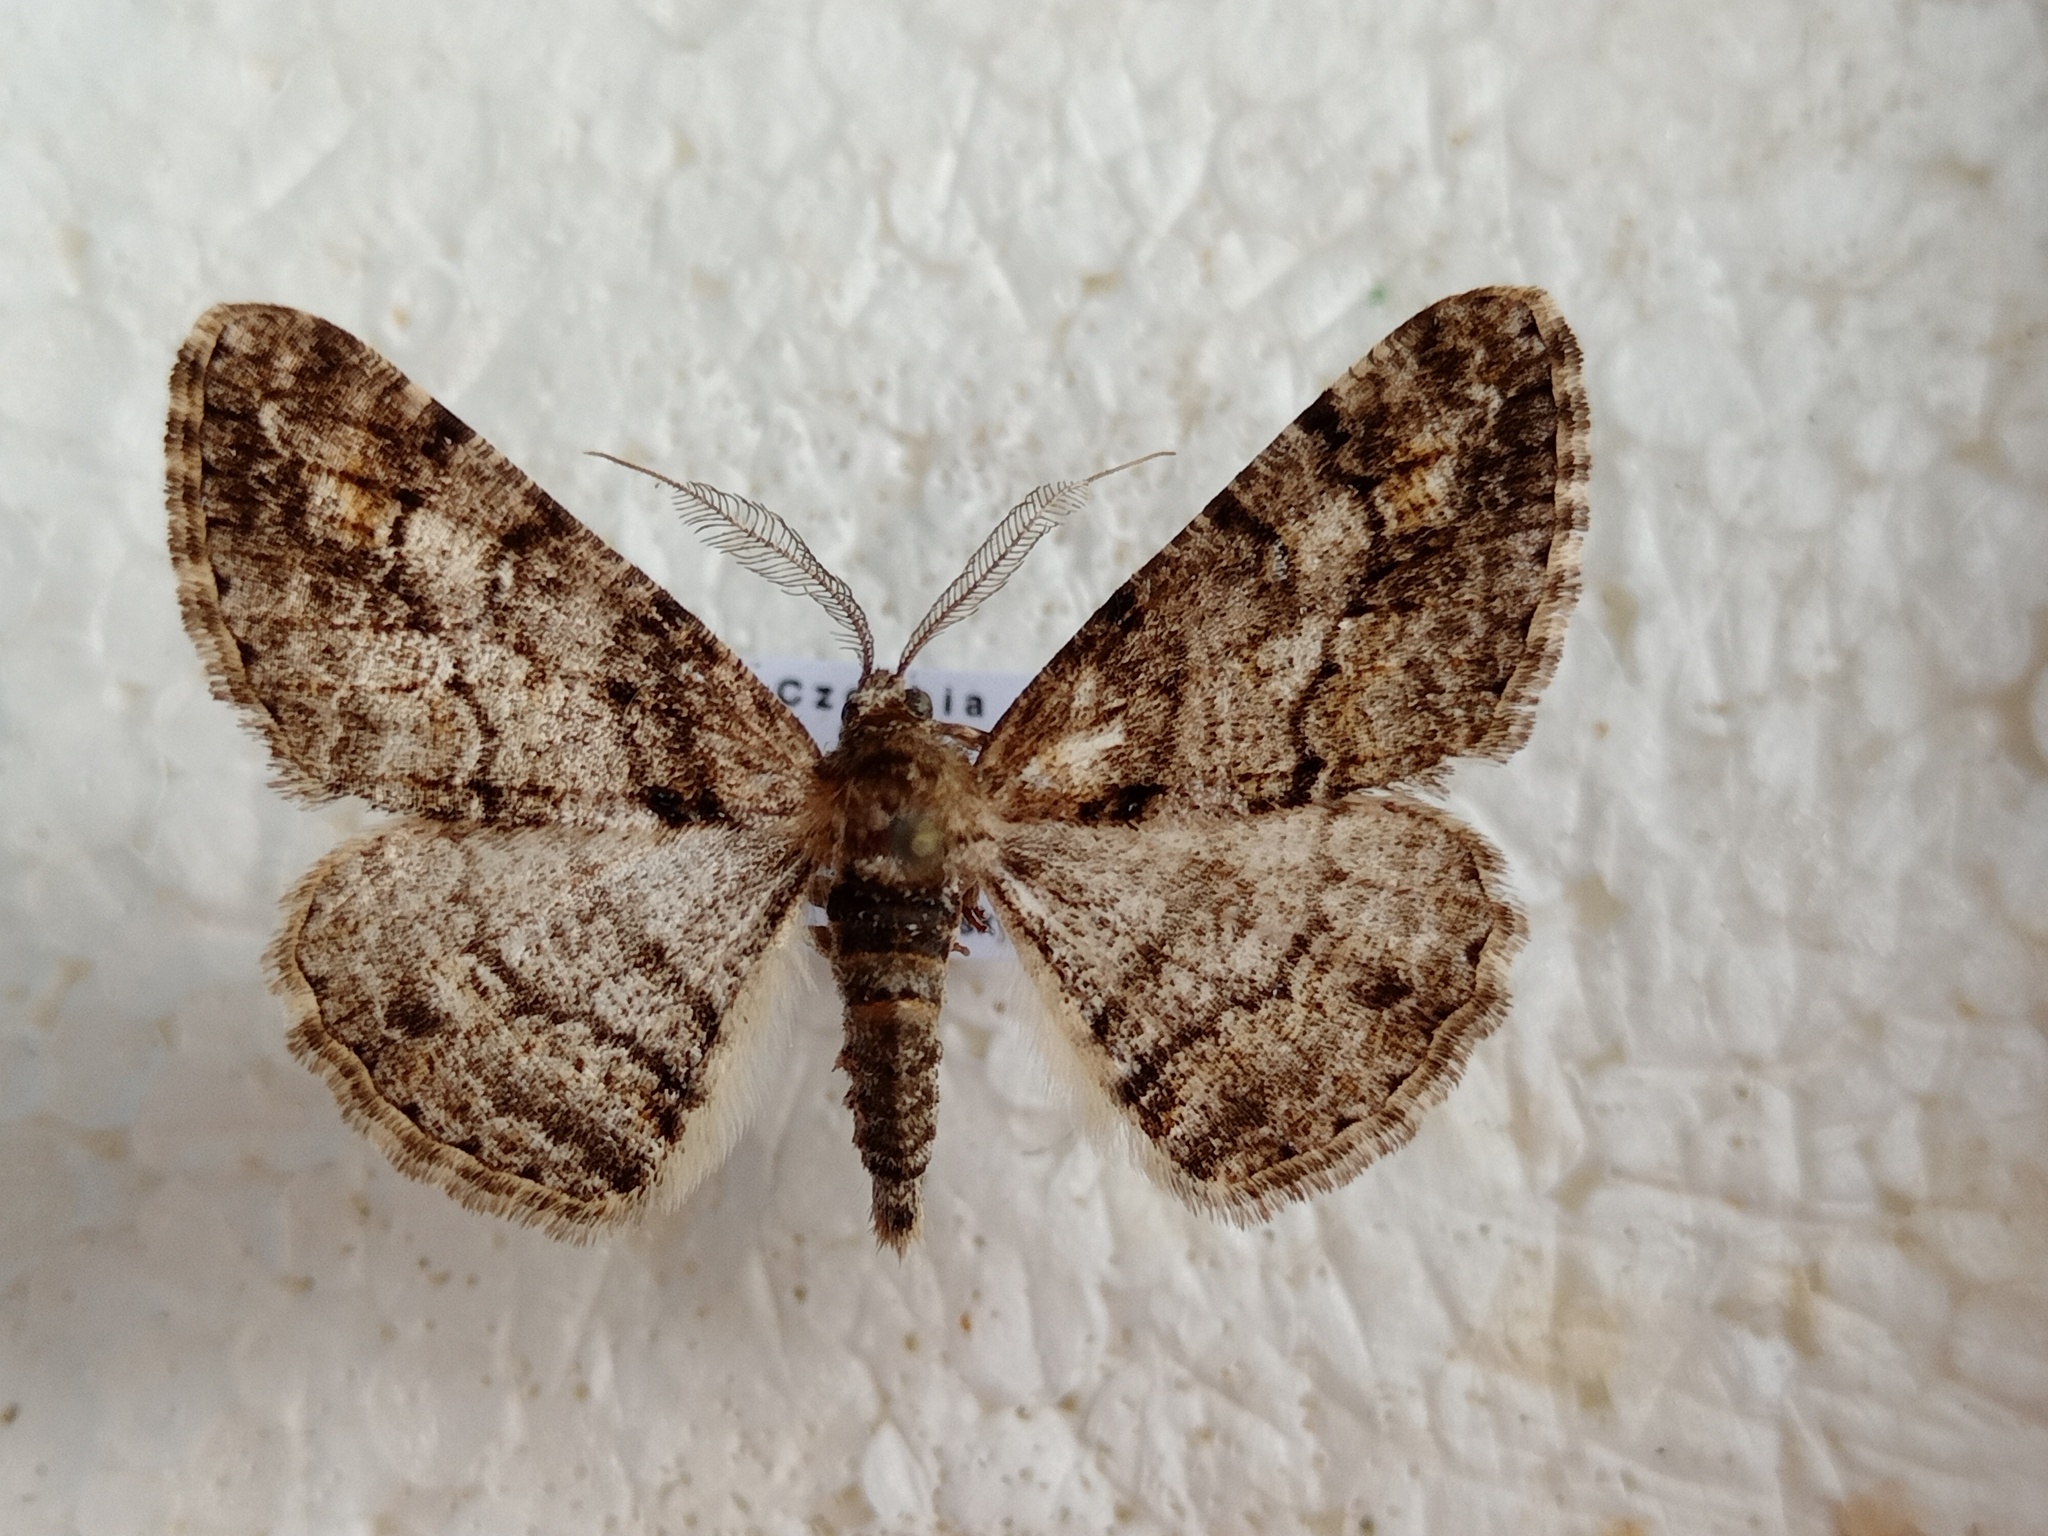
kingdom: Animalia
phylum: Arthropoda
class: Insecta
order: Lepidoptera
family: Geometridae
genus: Cleora
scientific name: Cleora cinctaria
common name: Ringed carpet
